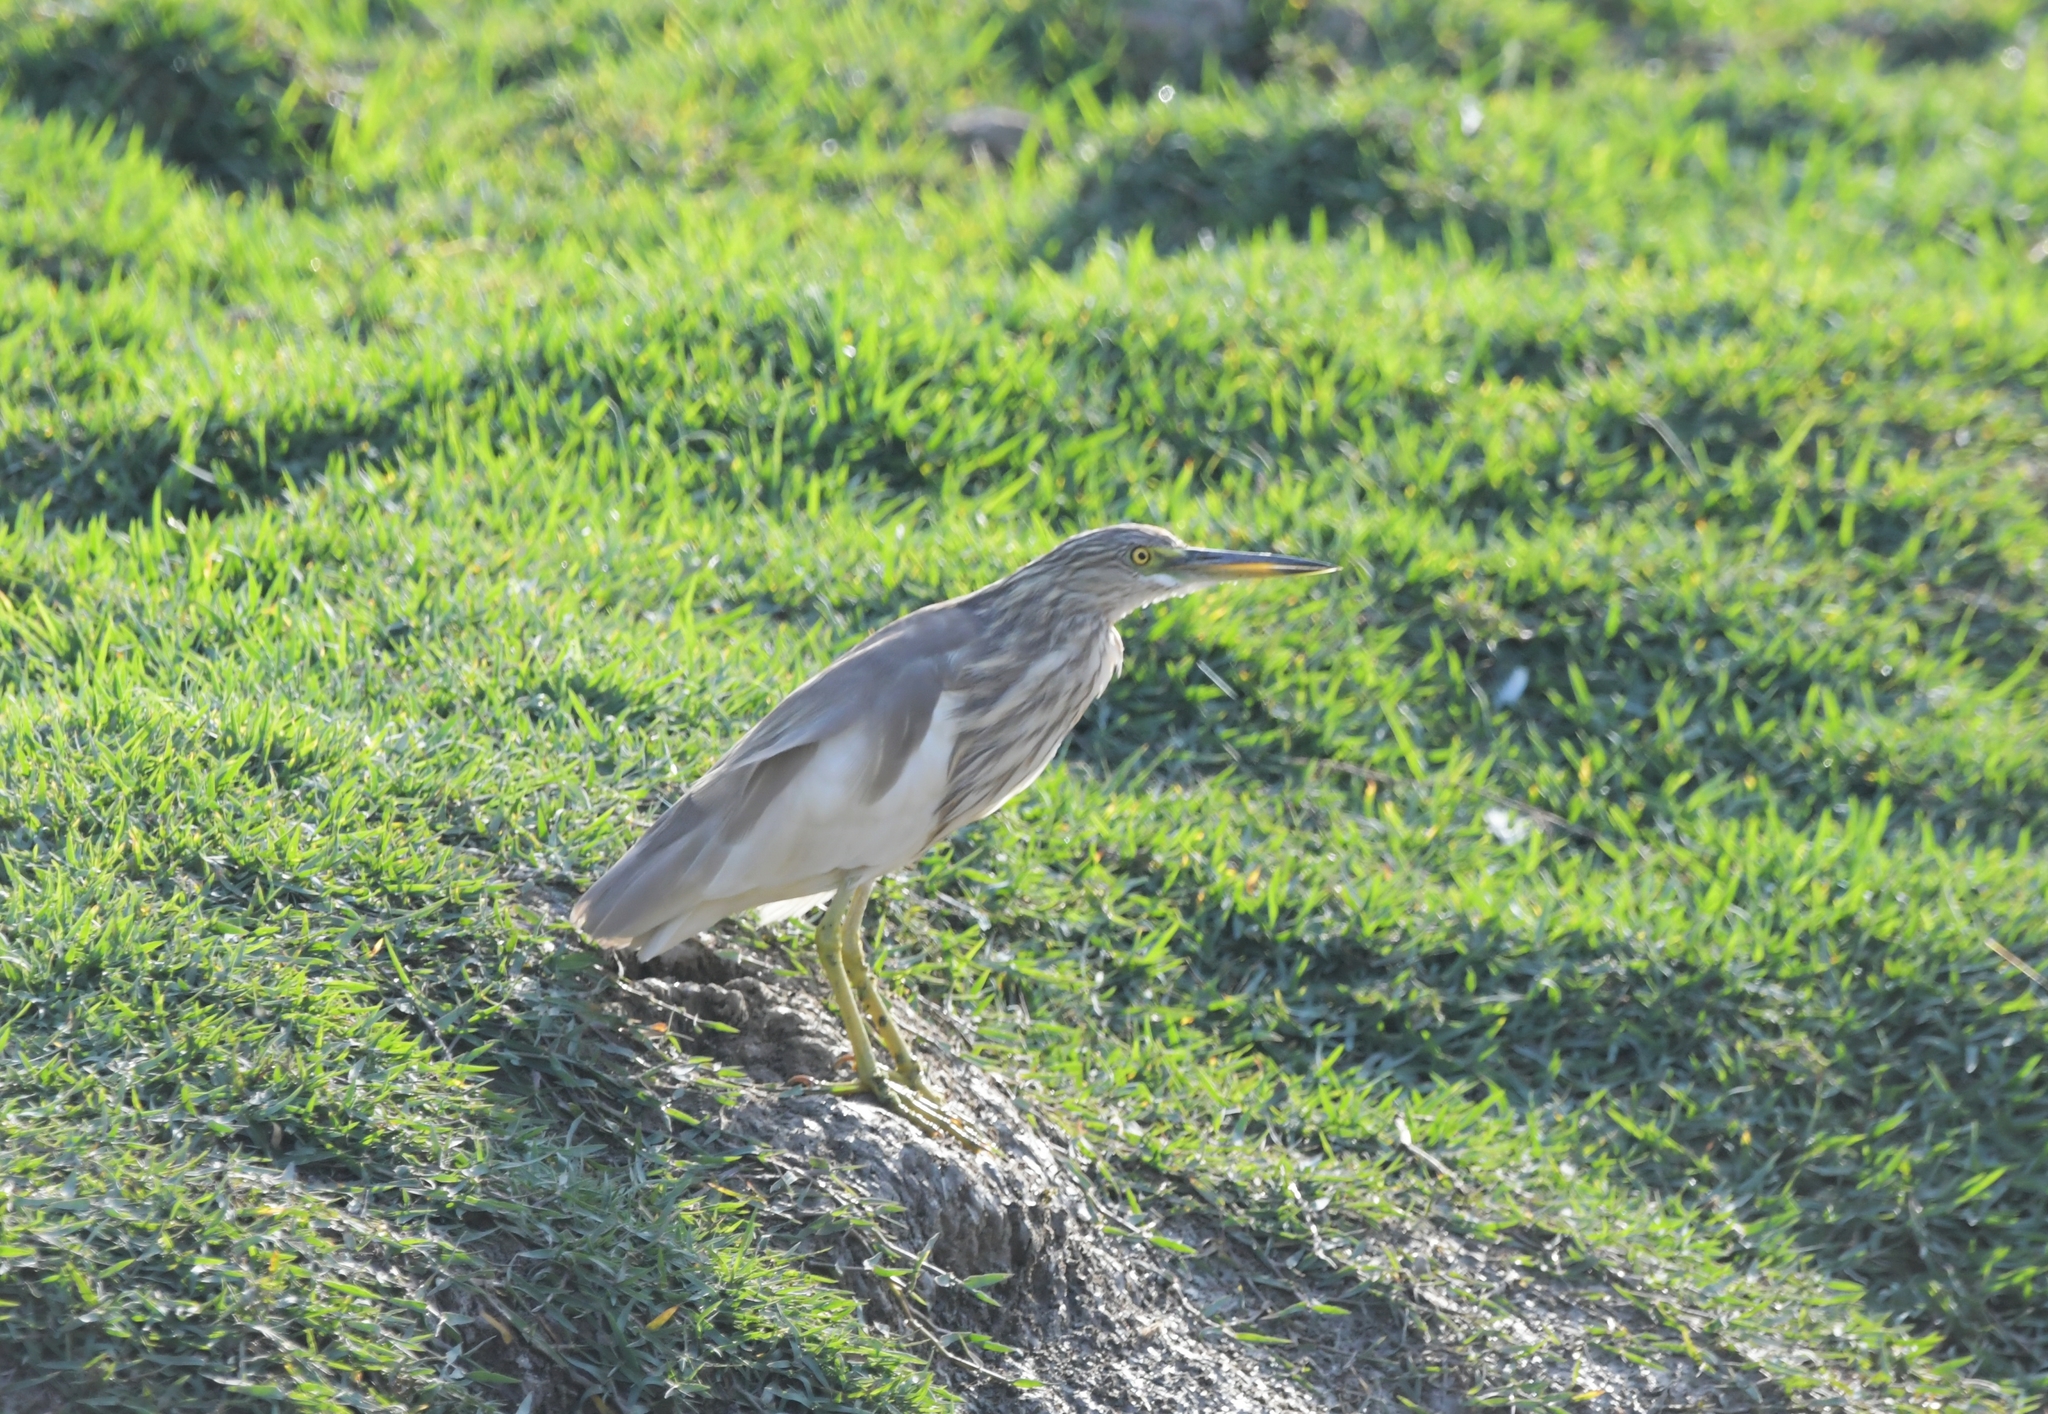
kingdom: Animalia
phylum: Chordata
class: Aves
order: Pelecaniformes
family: Ardeidae
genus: Ardeola
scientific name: Ardeola grayii
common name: Indian pond heron
